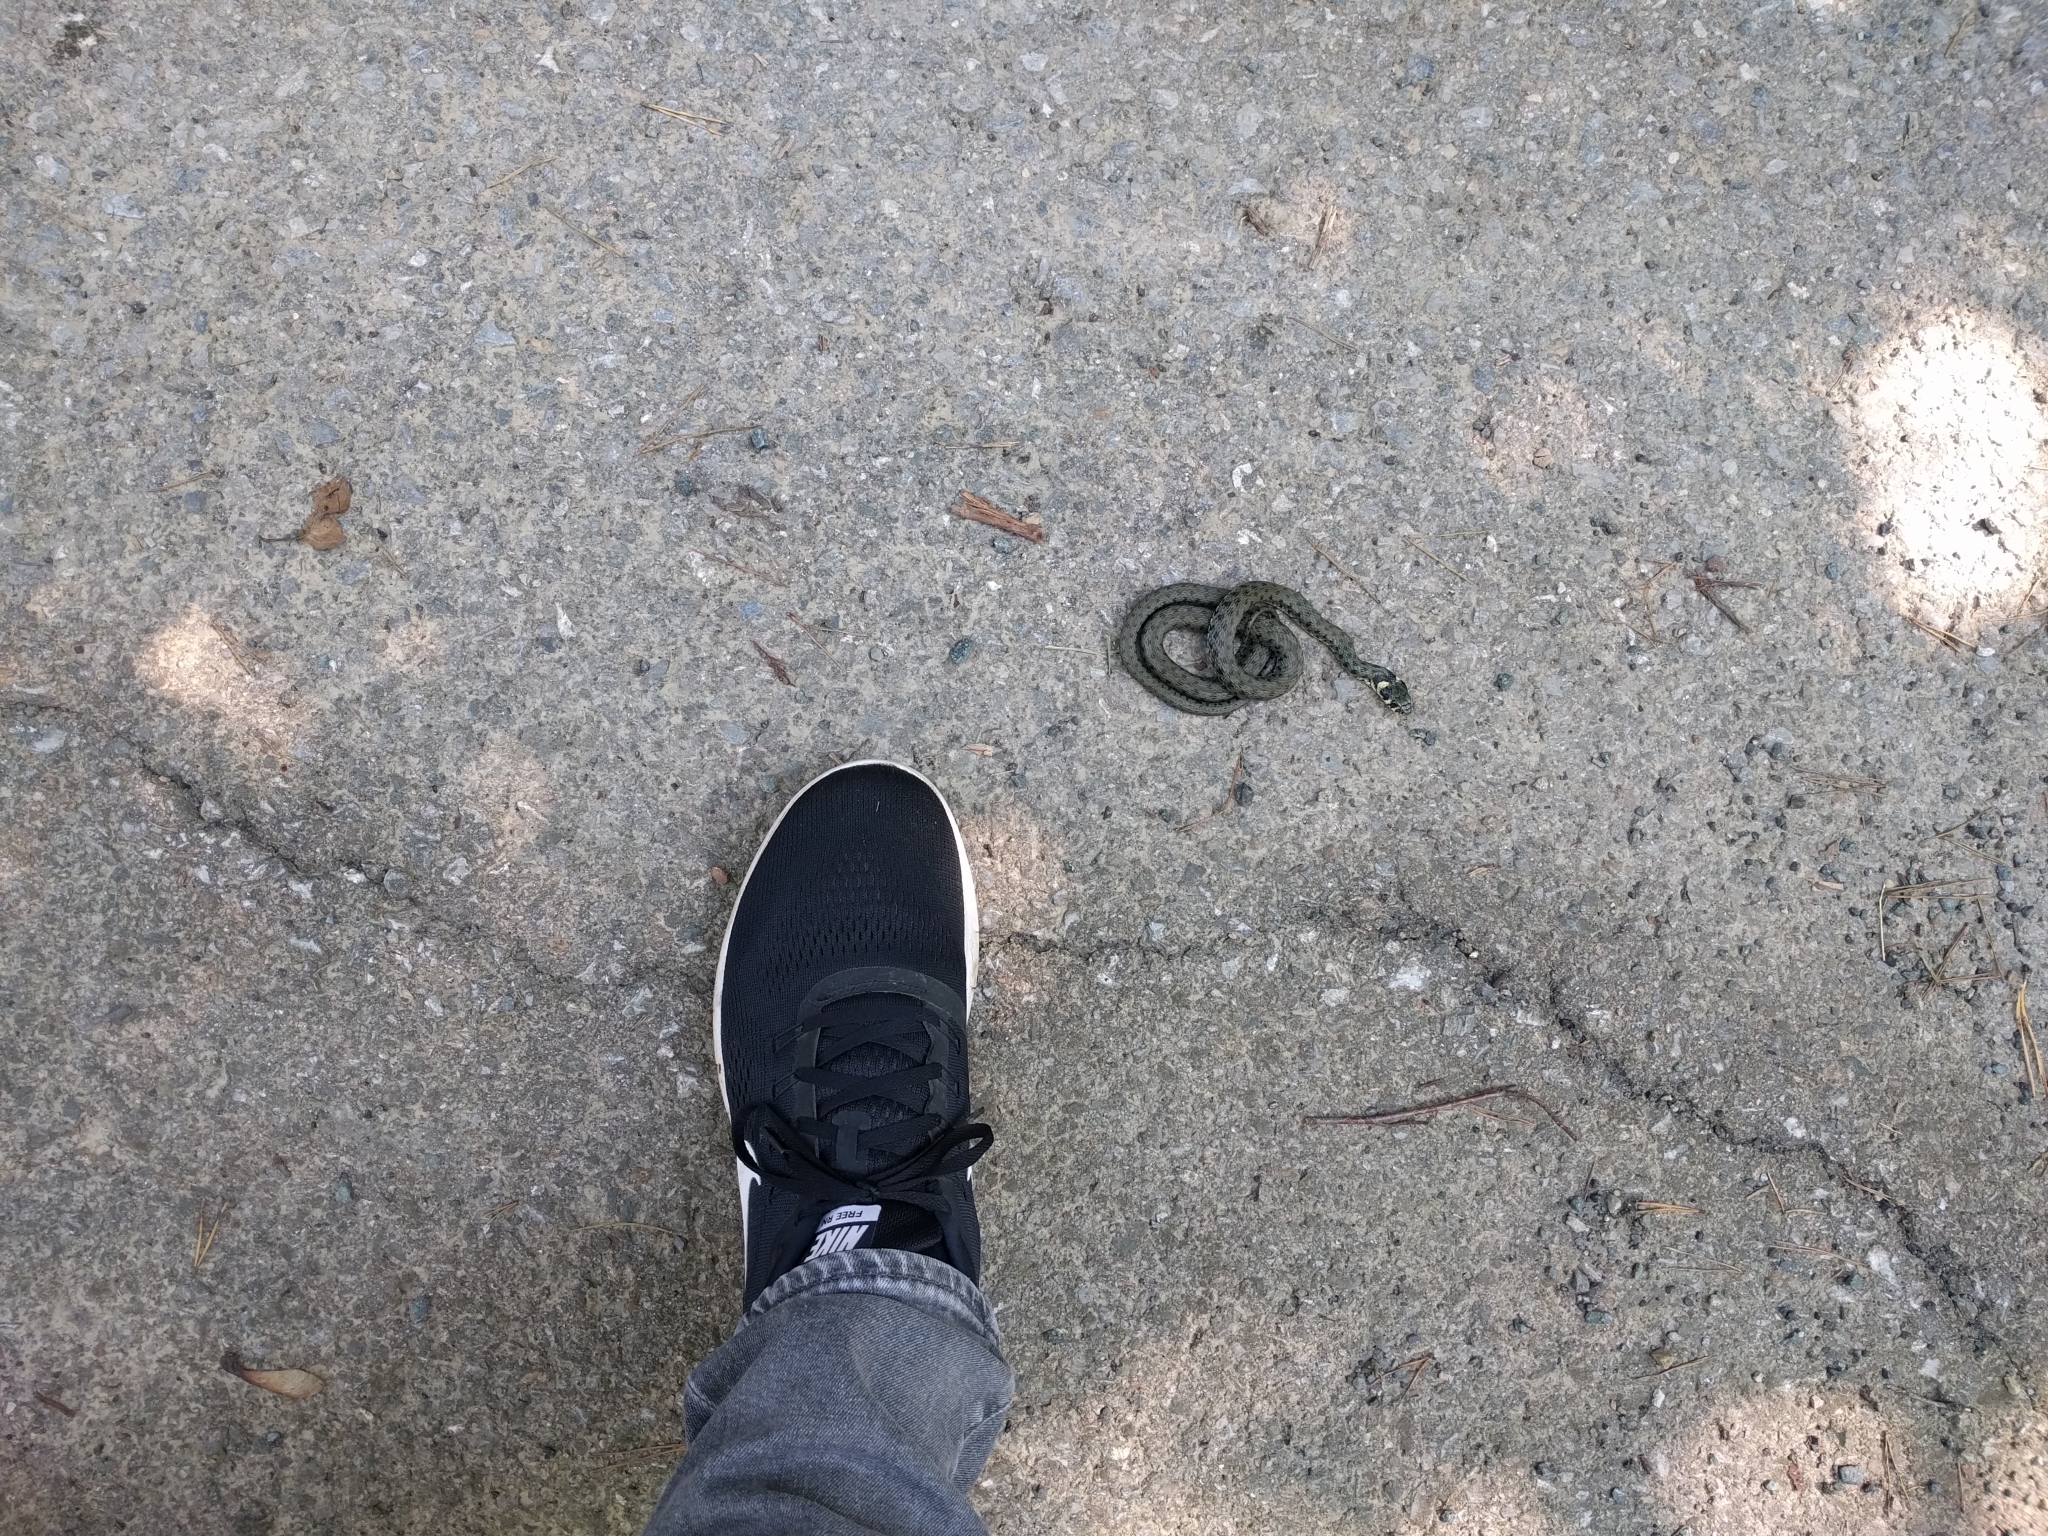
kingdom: Animalia
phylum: Chordata
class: Squamata
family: Colubridae
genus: Natrix
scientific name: Natrix natrix
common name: Grass snake
